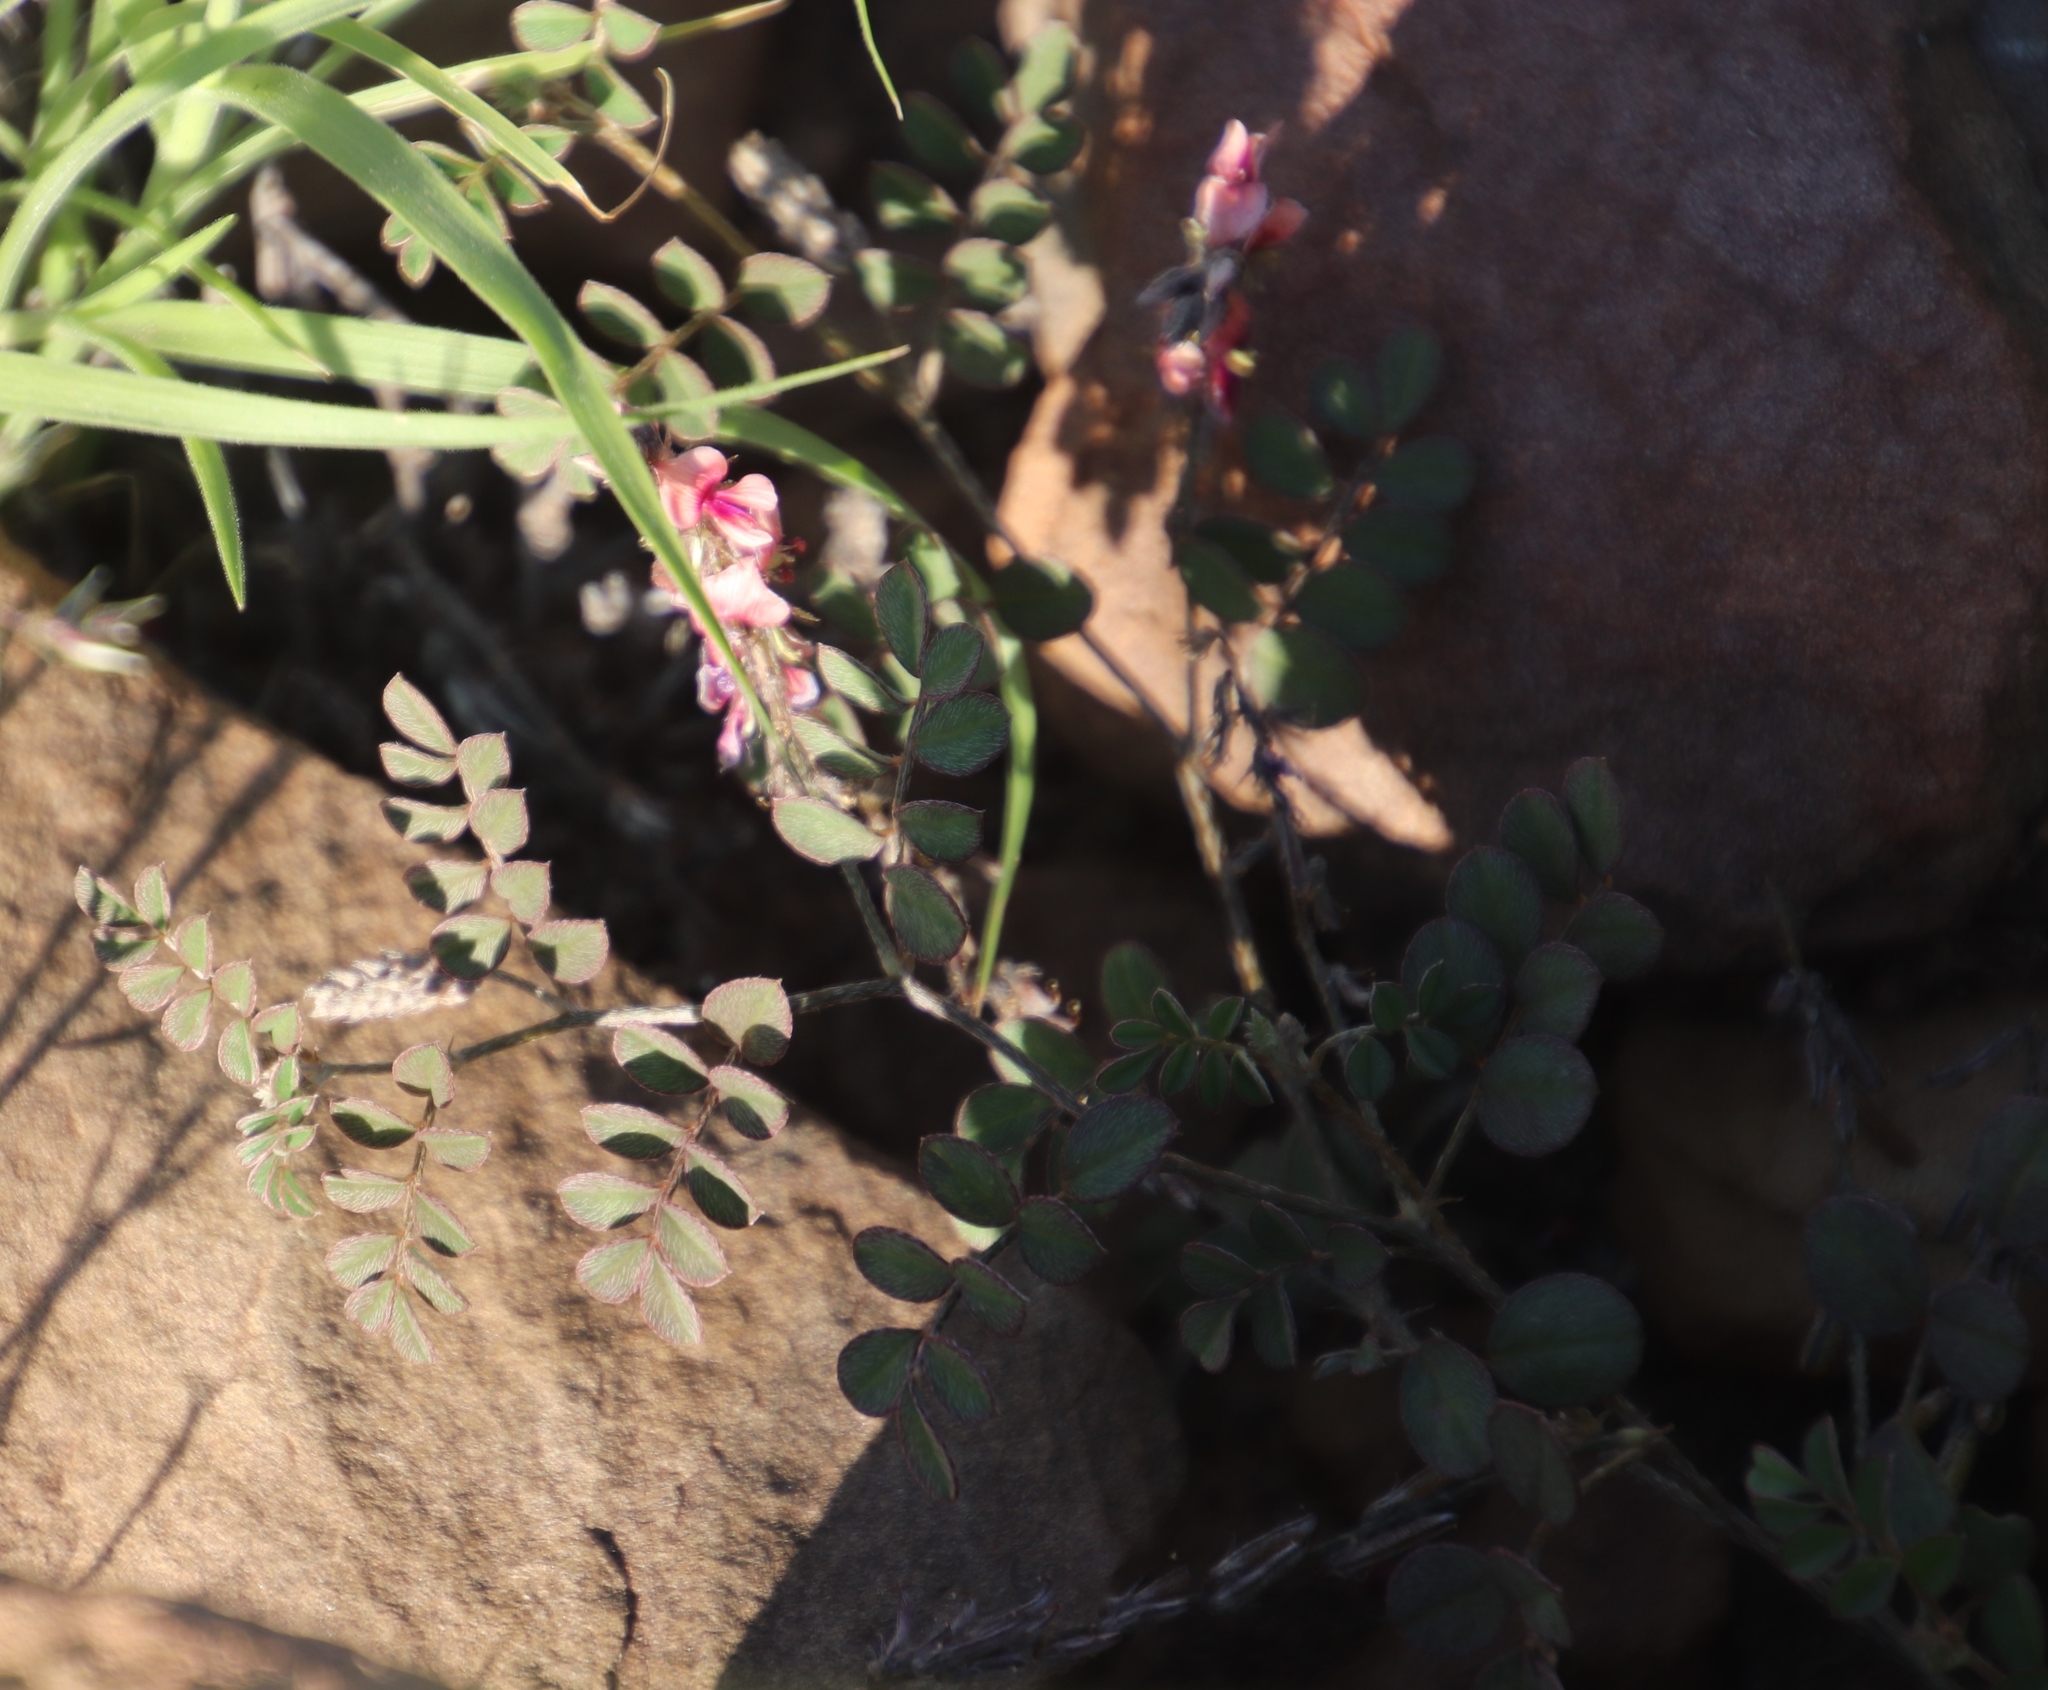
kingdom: Plantae
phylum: Tracheophyta
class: Magnoliopsida
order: Fabales
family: Fabaceae
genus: Indigofera
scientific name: Indigofera alternans
